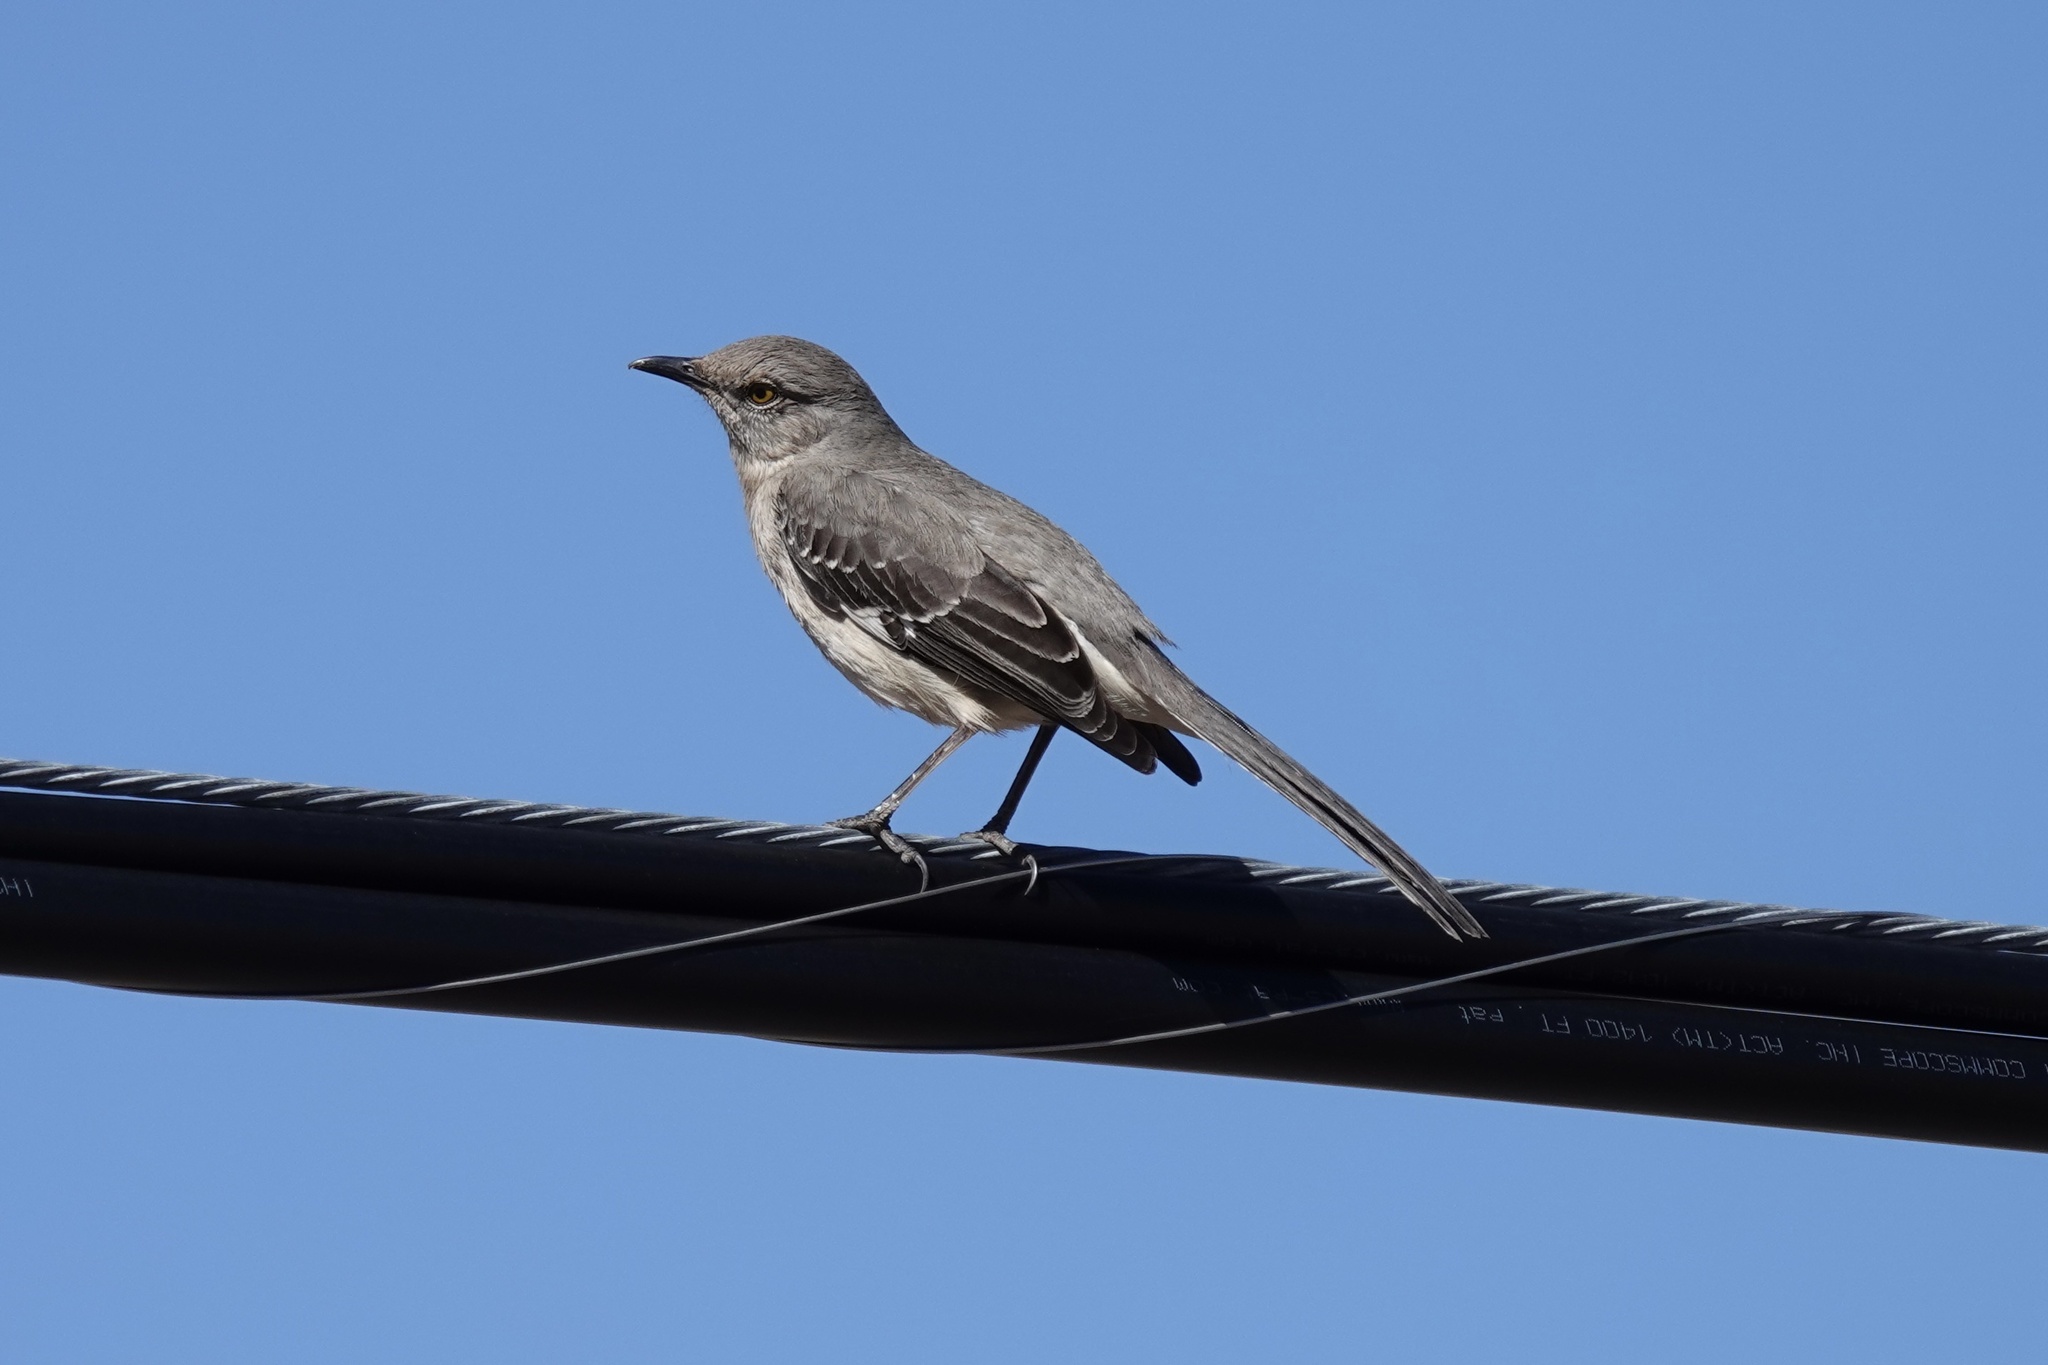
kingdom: Animalia
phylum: Chordata
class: Aves
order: Passeriformes
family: Mimidae
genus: Mimus
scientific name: Mimus polyglottos
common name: Northern mockingbird
